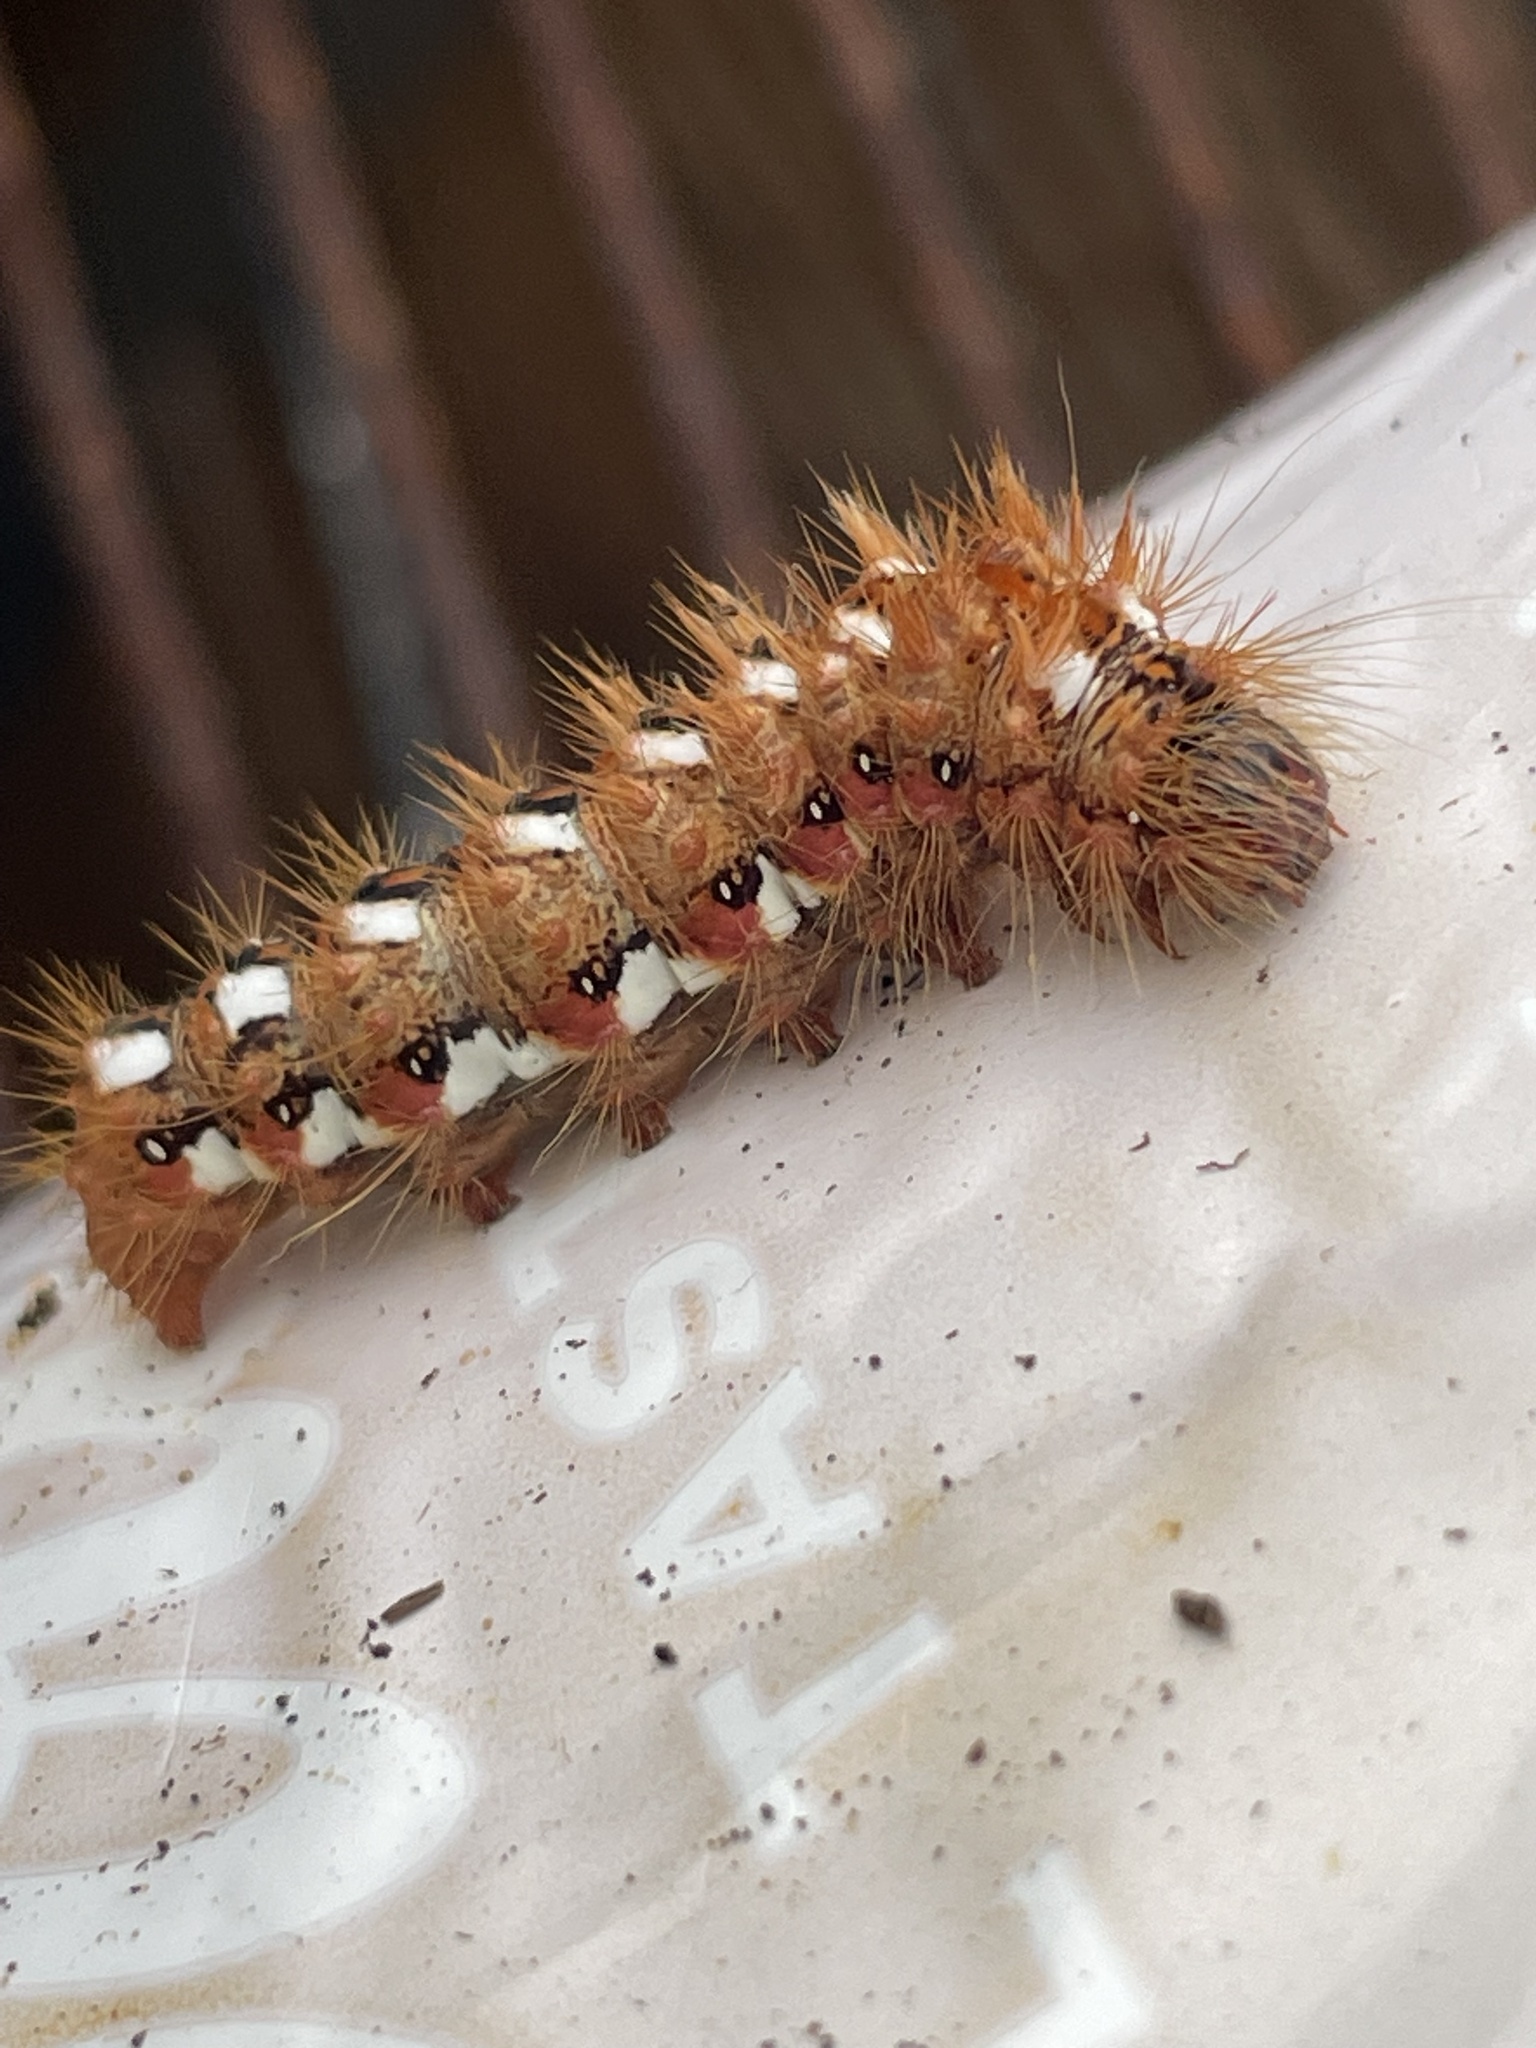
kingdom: Animalia
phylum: Arthropoda
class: Insecta
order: Lepidoptera
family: Noctuidae
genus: Acronicta
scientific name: Acronicta rumicis
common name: Knot grass
